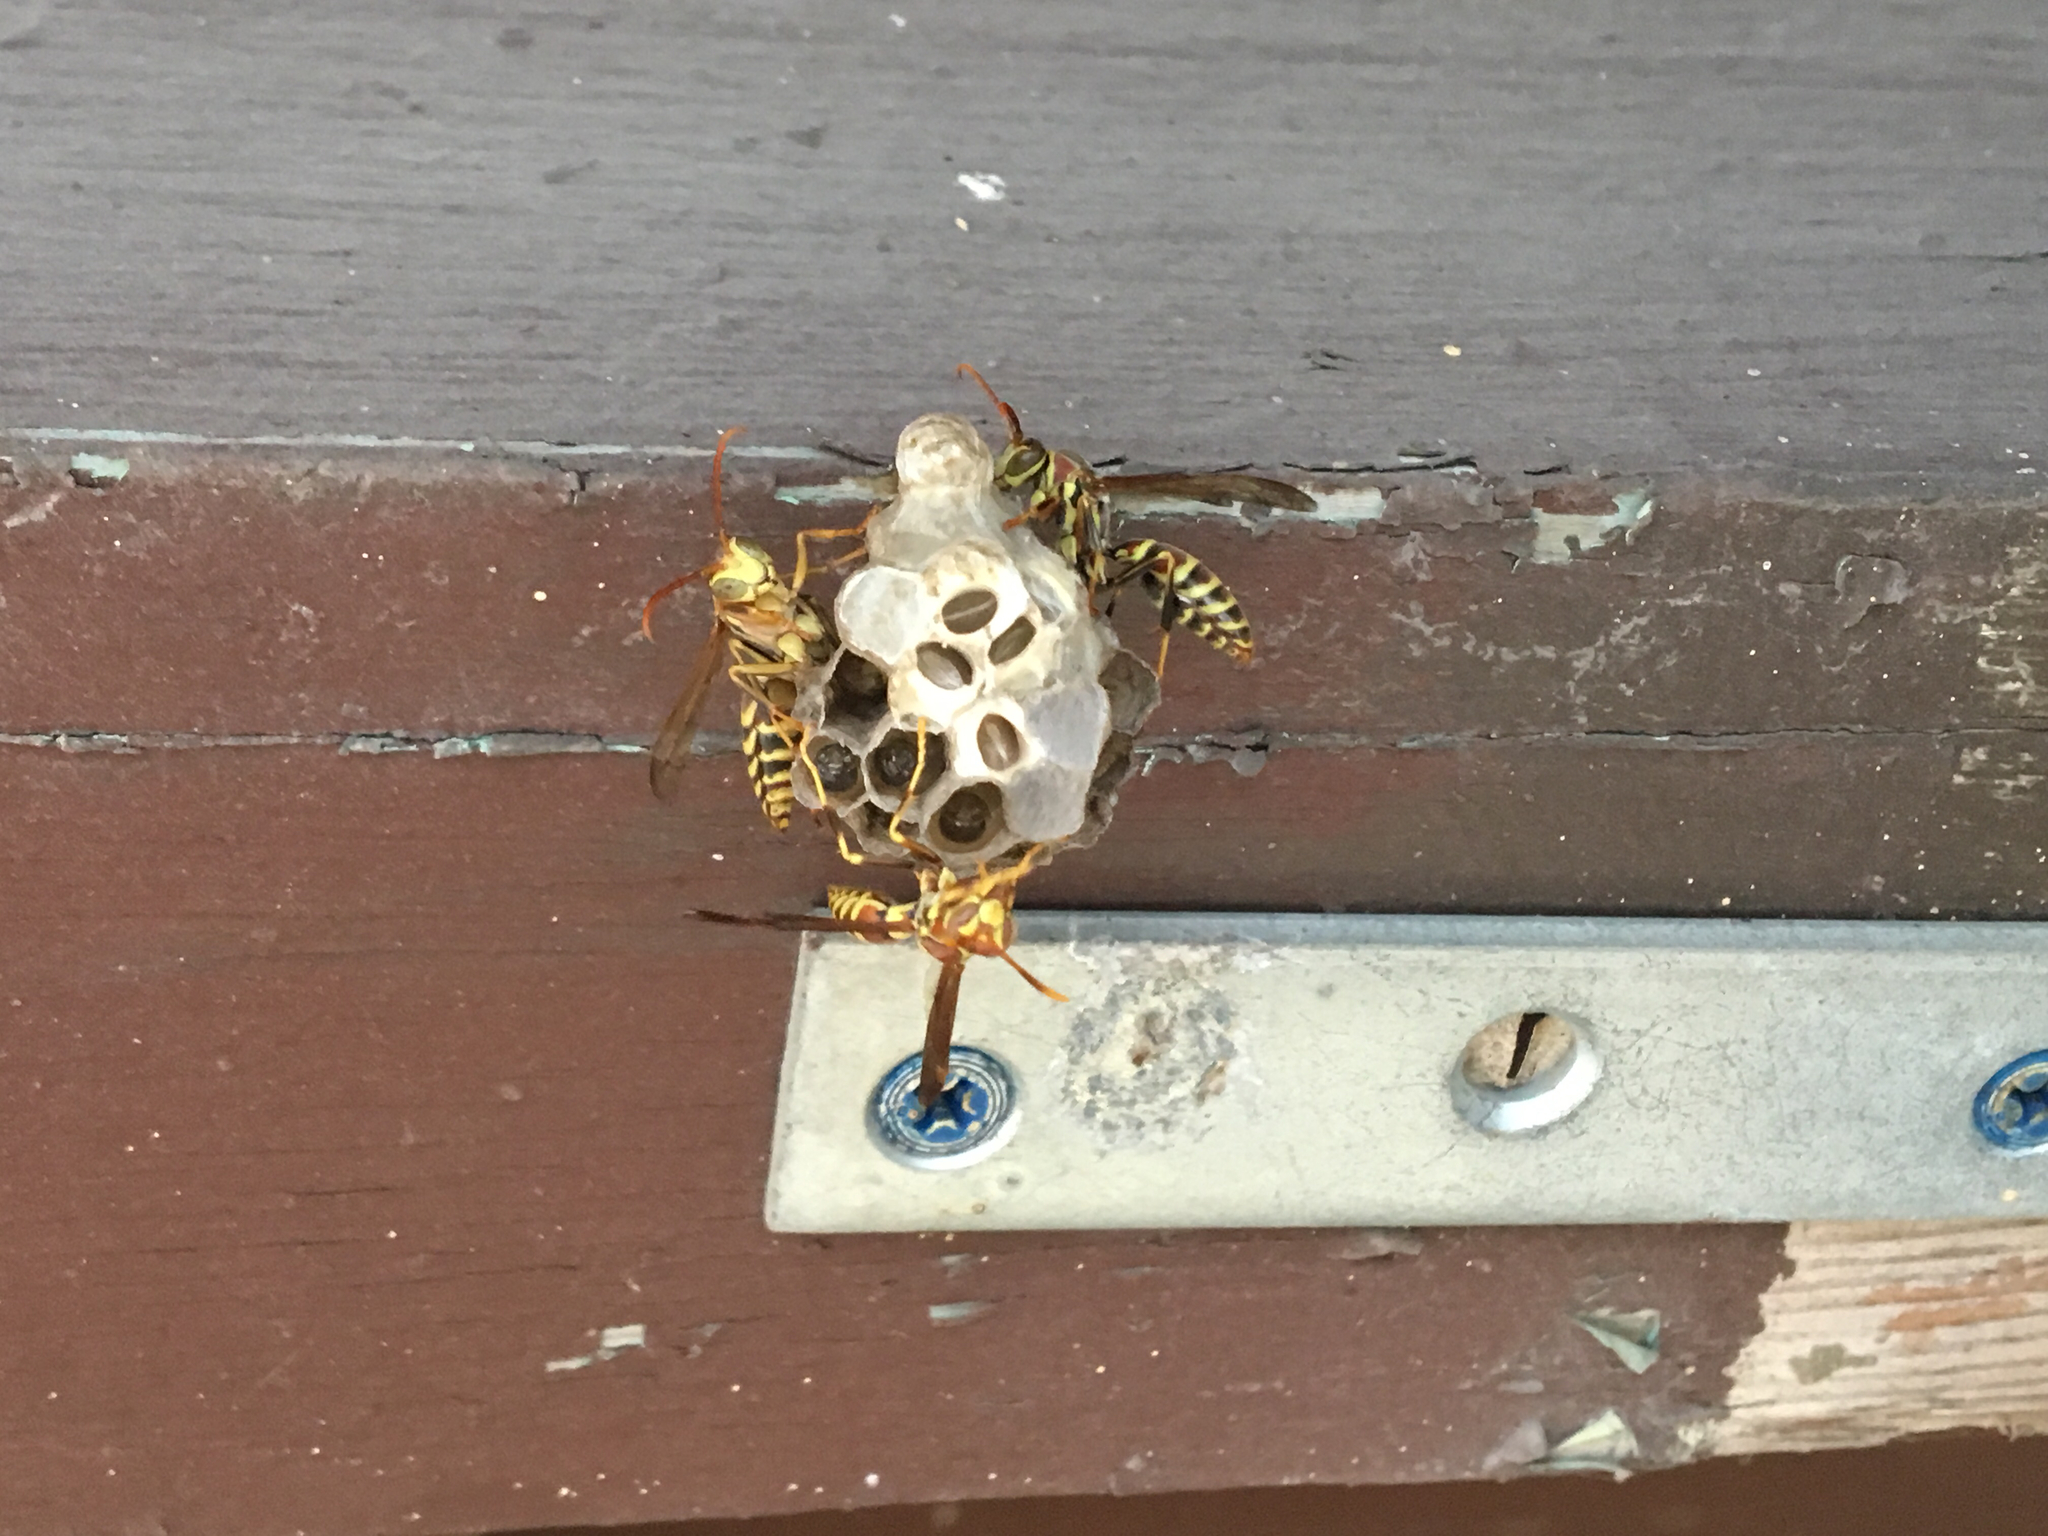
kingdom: Animalia
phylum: Arthropoda
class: Insecta
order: Hymenoptera
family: Eumenidae
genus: Polistes
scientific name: Polistes exclamans
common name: Paper wasp
